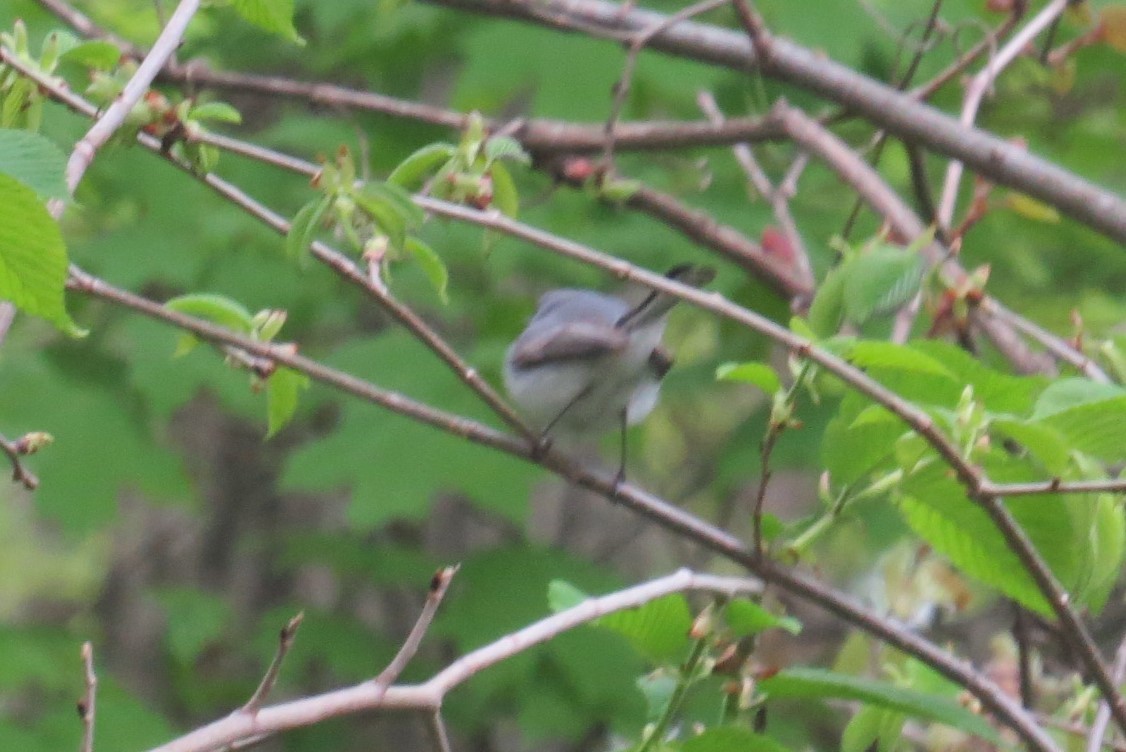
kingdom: Animalia
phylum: Chordata
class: Aves
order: Passeriformes
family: Polioptilidae
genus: Polioptila
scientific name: Polioptila caerulea
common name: Blue-gray gnatcatcher
